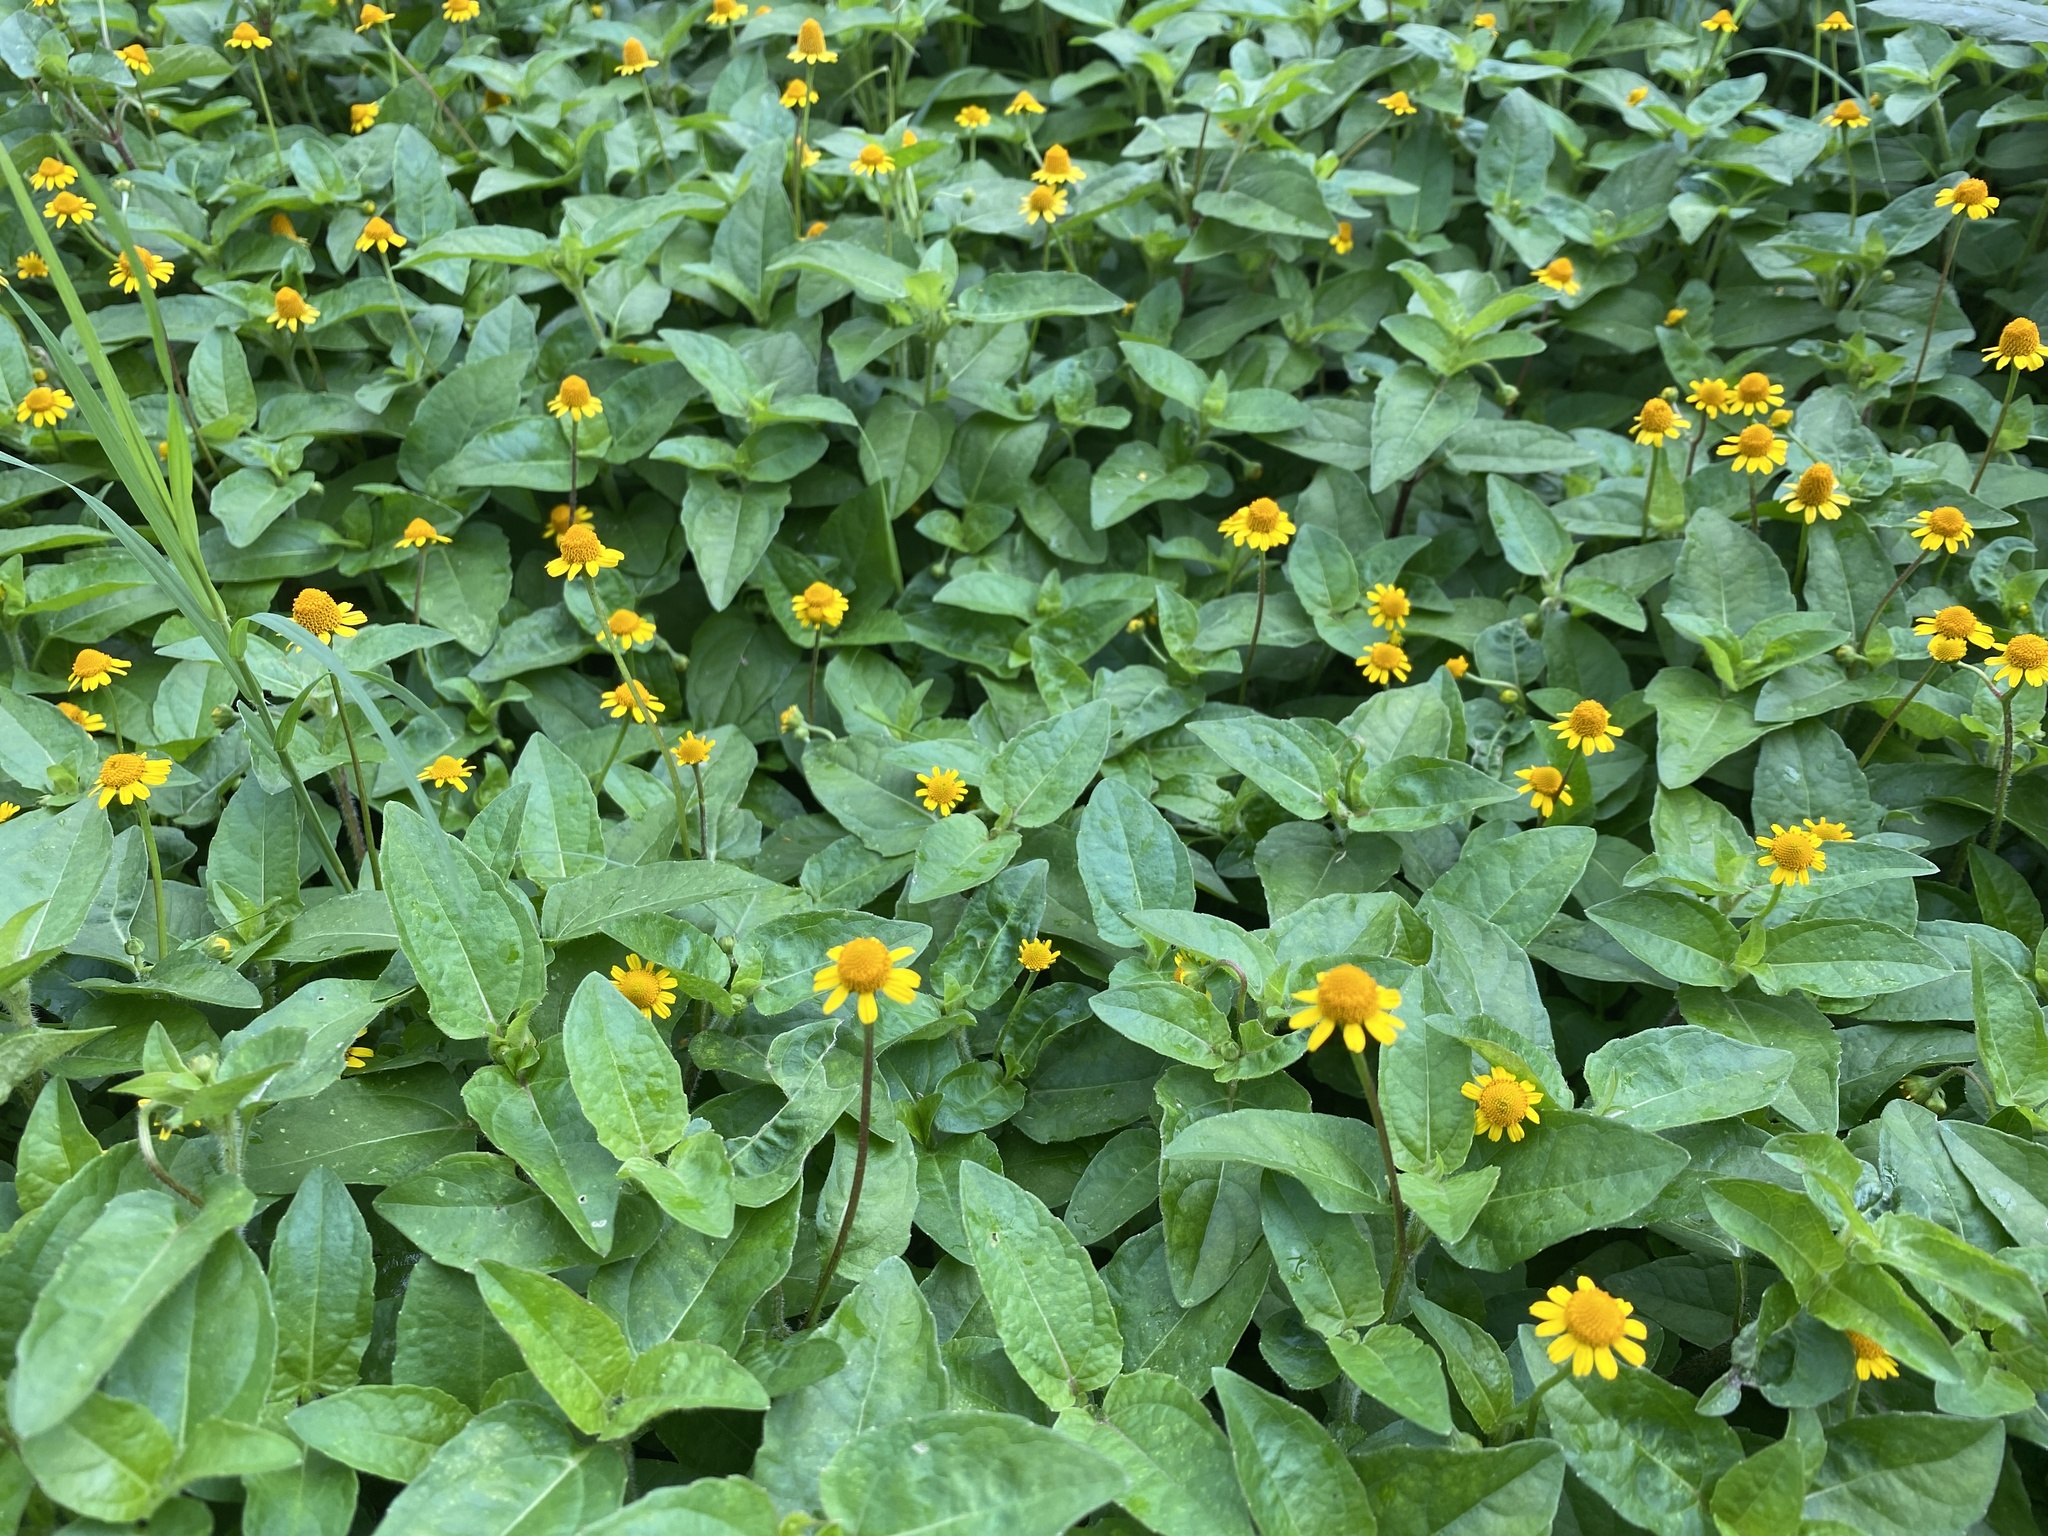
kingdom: Plantae
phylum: Tracheophyta
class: Magnoliopsida
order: Asterales
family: Asteraceae
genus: Acmella
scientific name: Acmella repens
